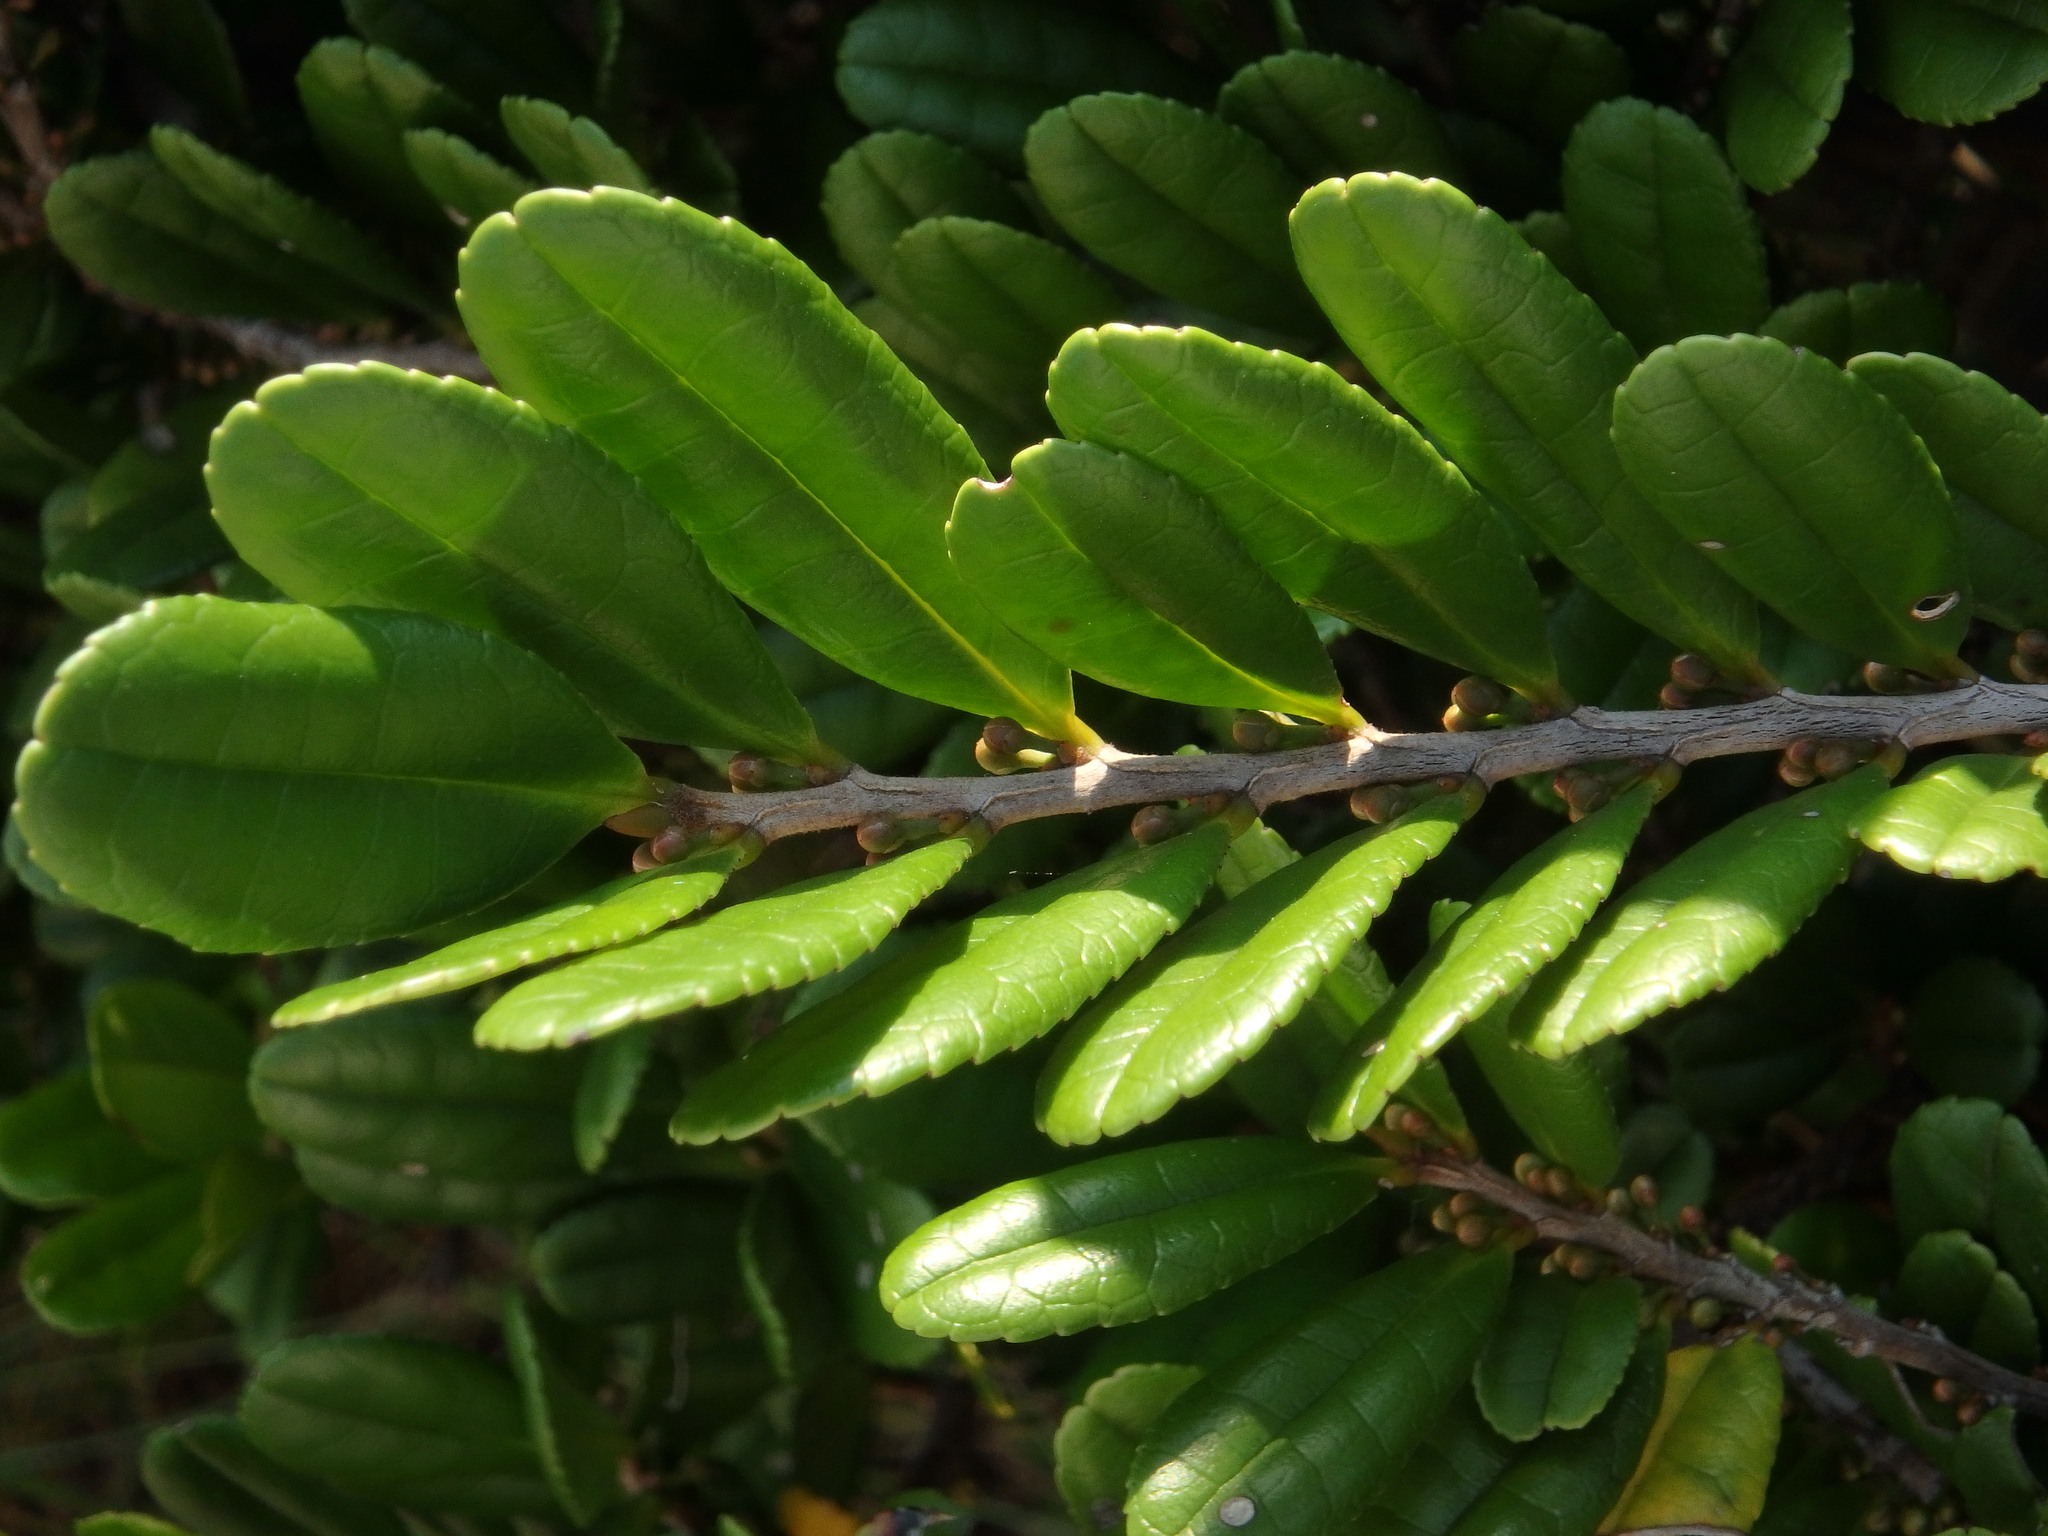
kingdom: Plantae
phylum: Tracheophyta
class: Magnoliopsida
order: Ericales
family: Pentaphylacaceae
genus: Eurya
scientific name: Eurya emarginata
